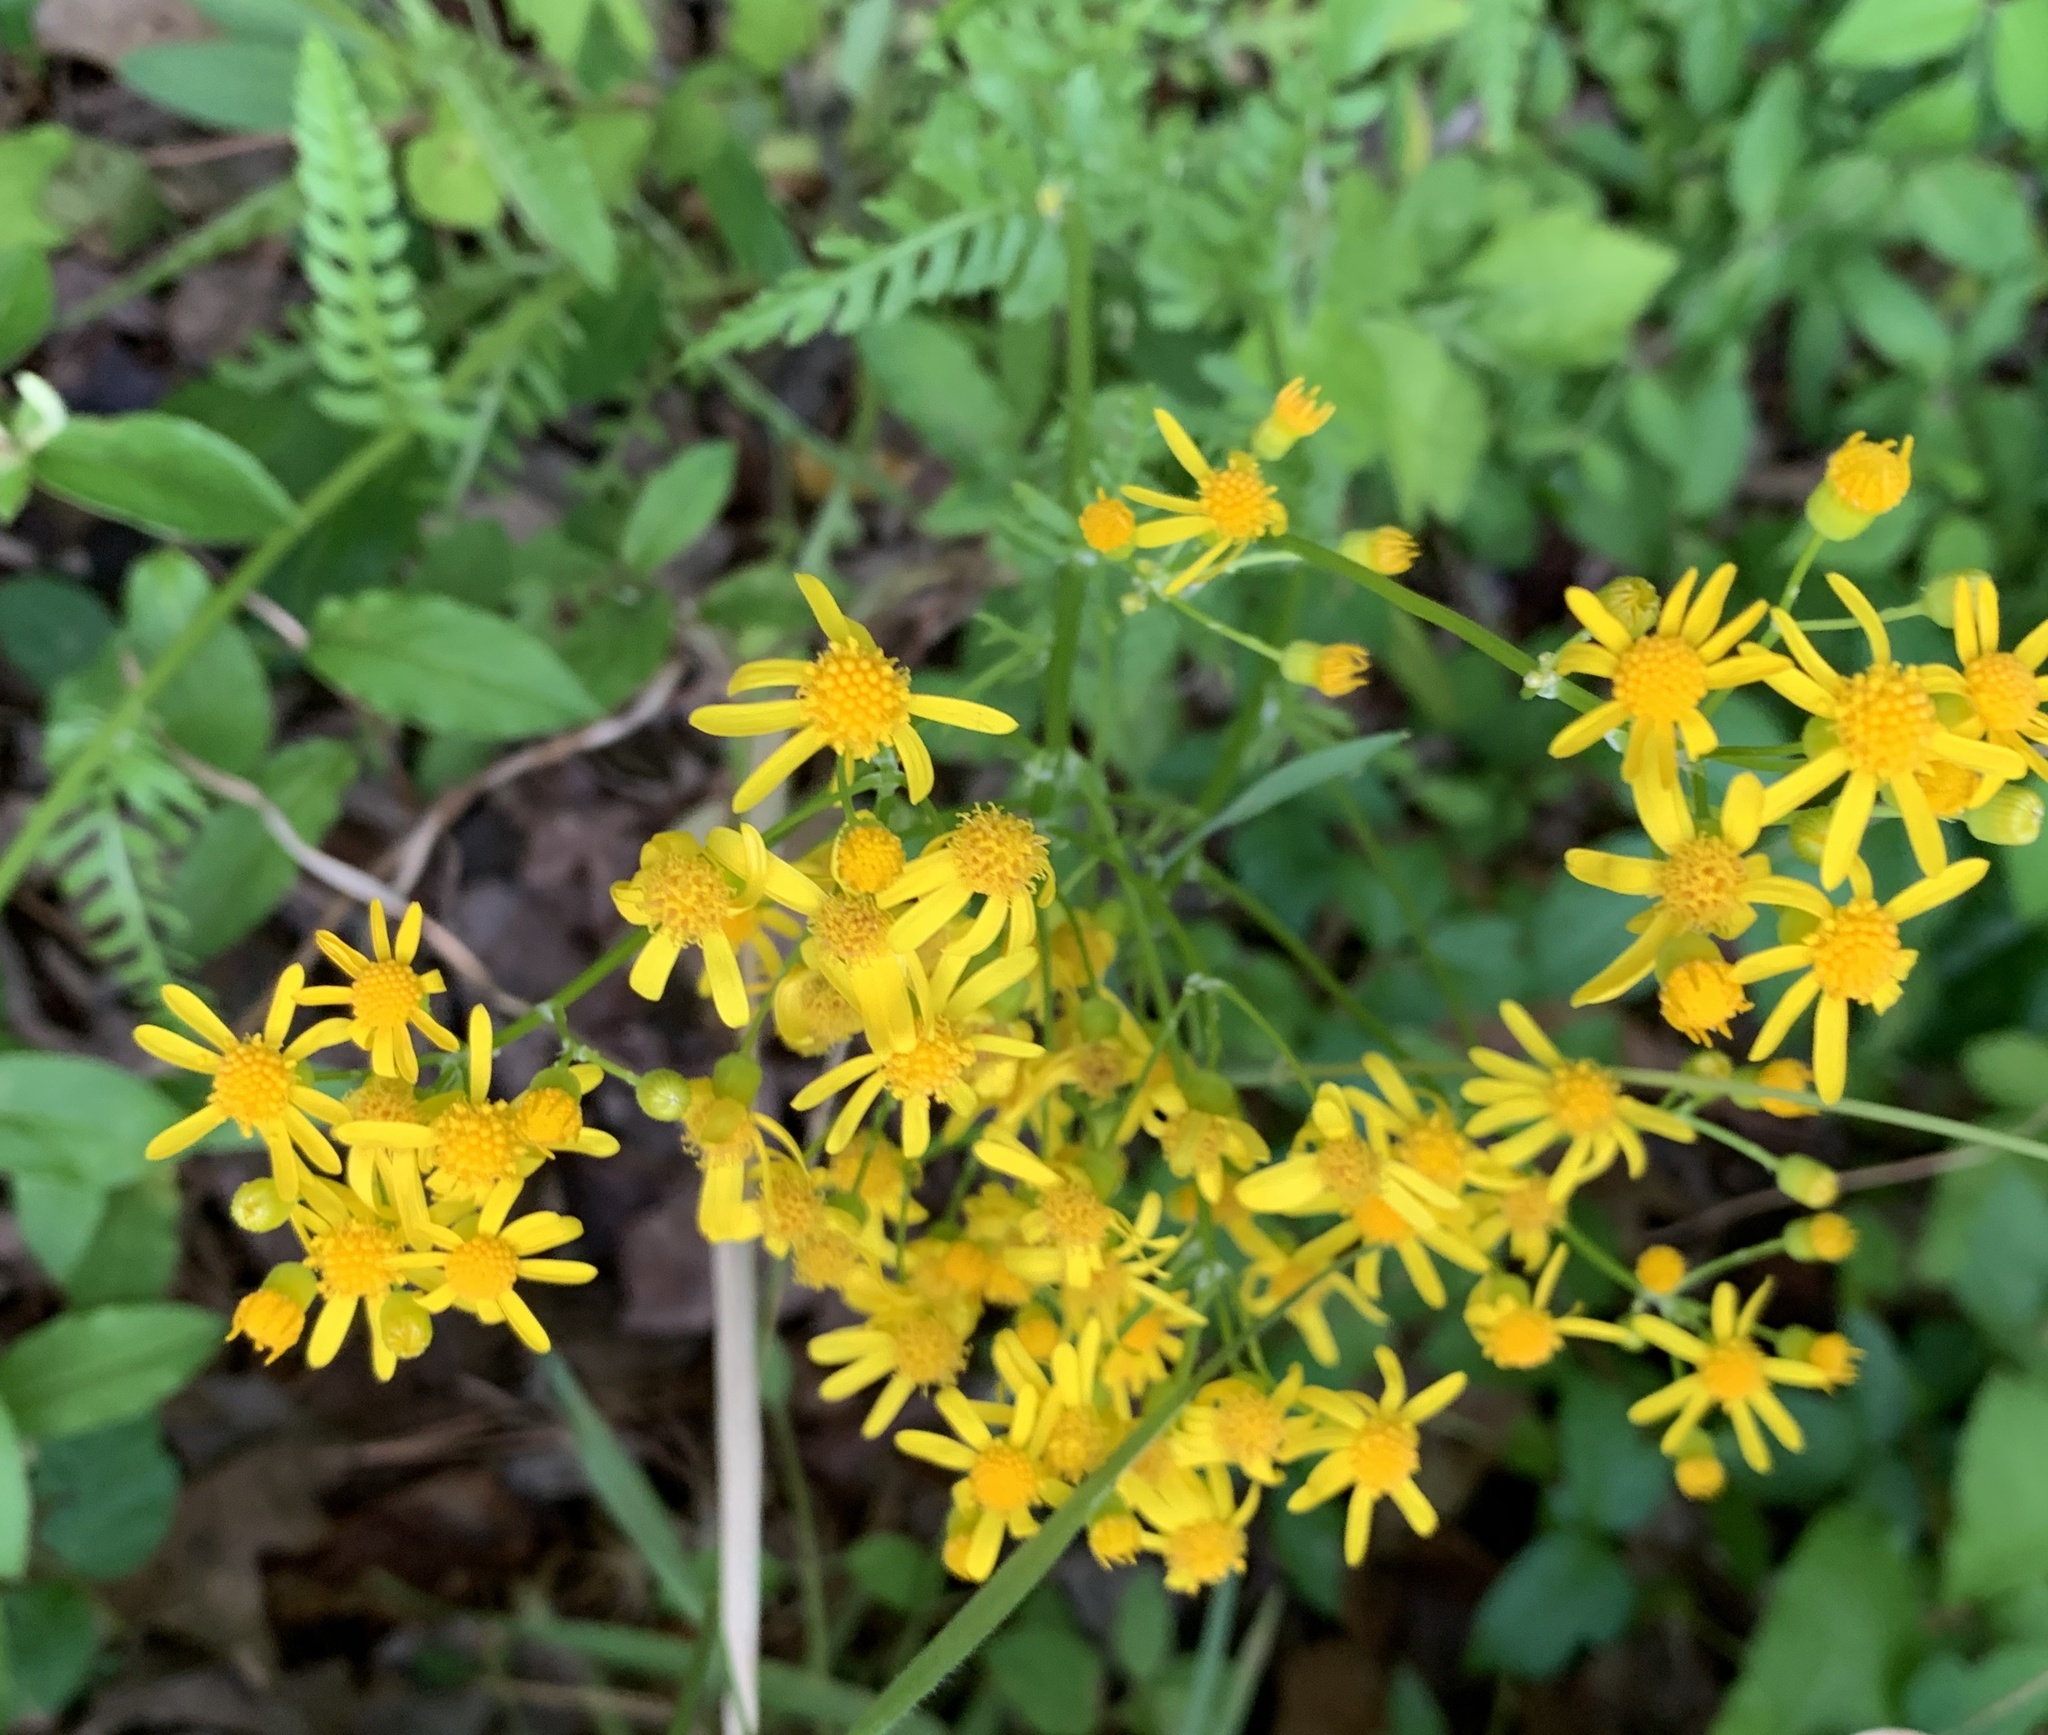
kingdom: Plantae
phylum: Tracheophyta
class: Magnoliopsida
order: Asterales
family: Asteraceae
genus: Packera
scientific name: Packera anonyma
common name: Small ragwort
